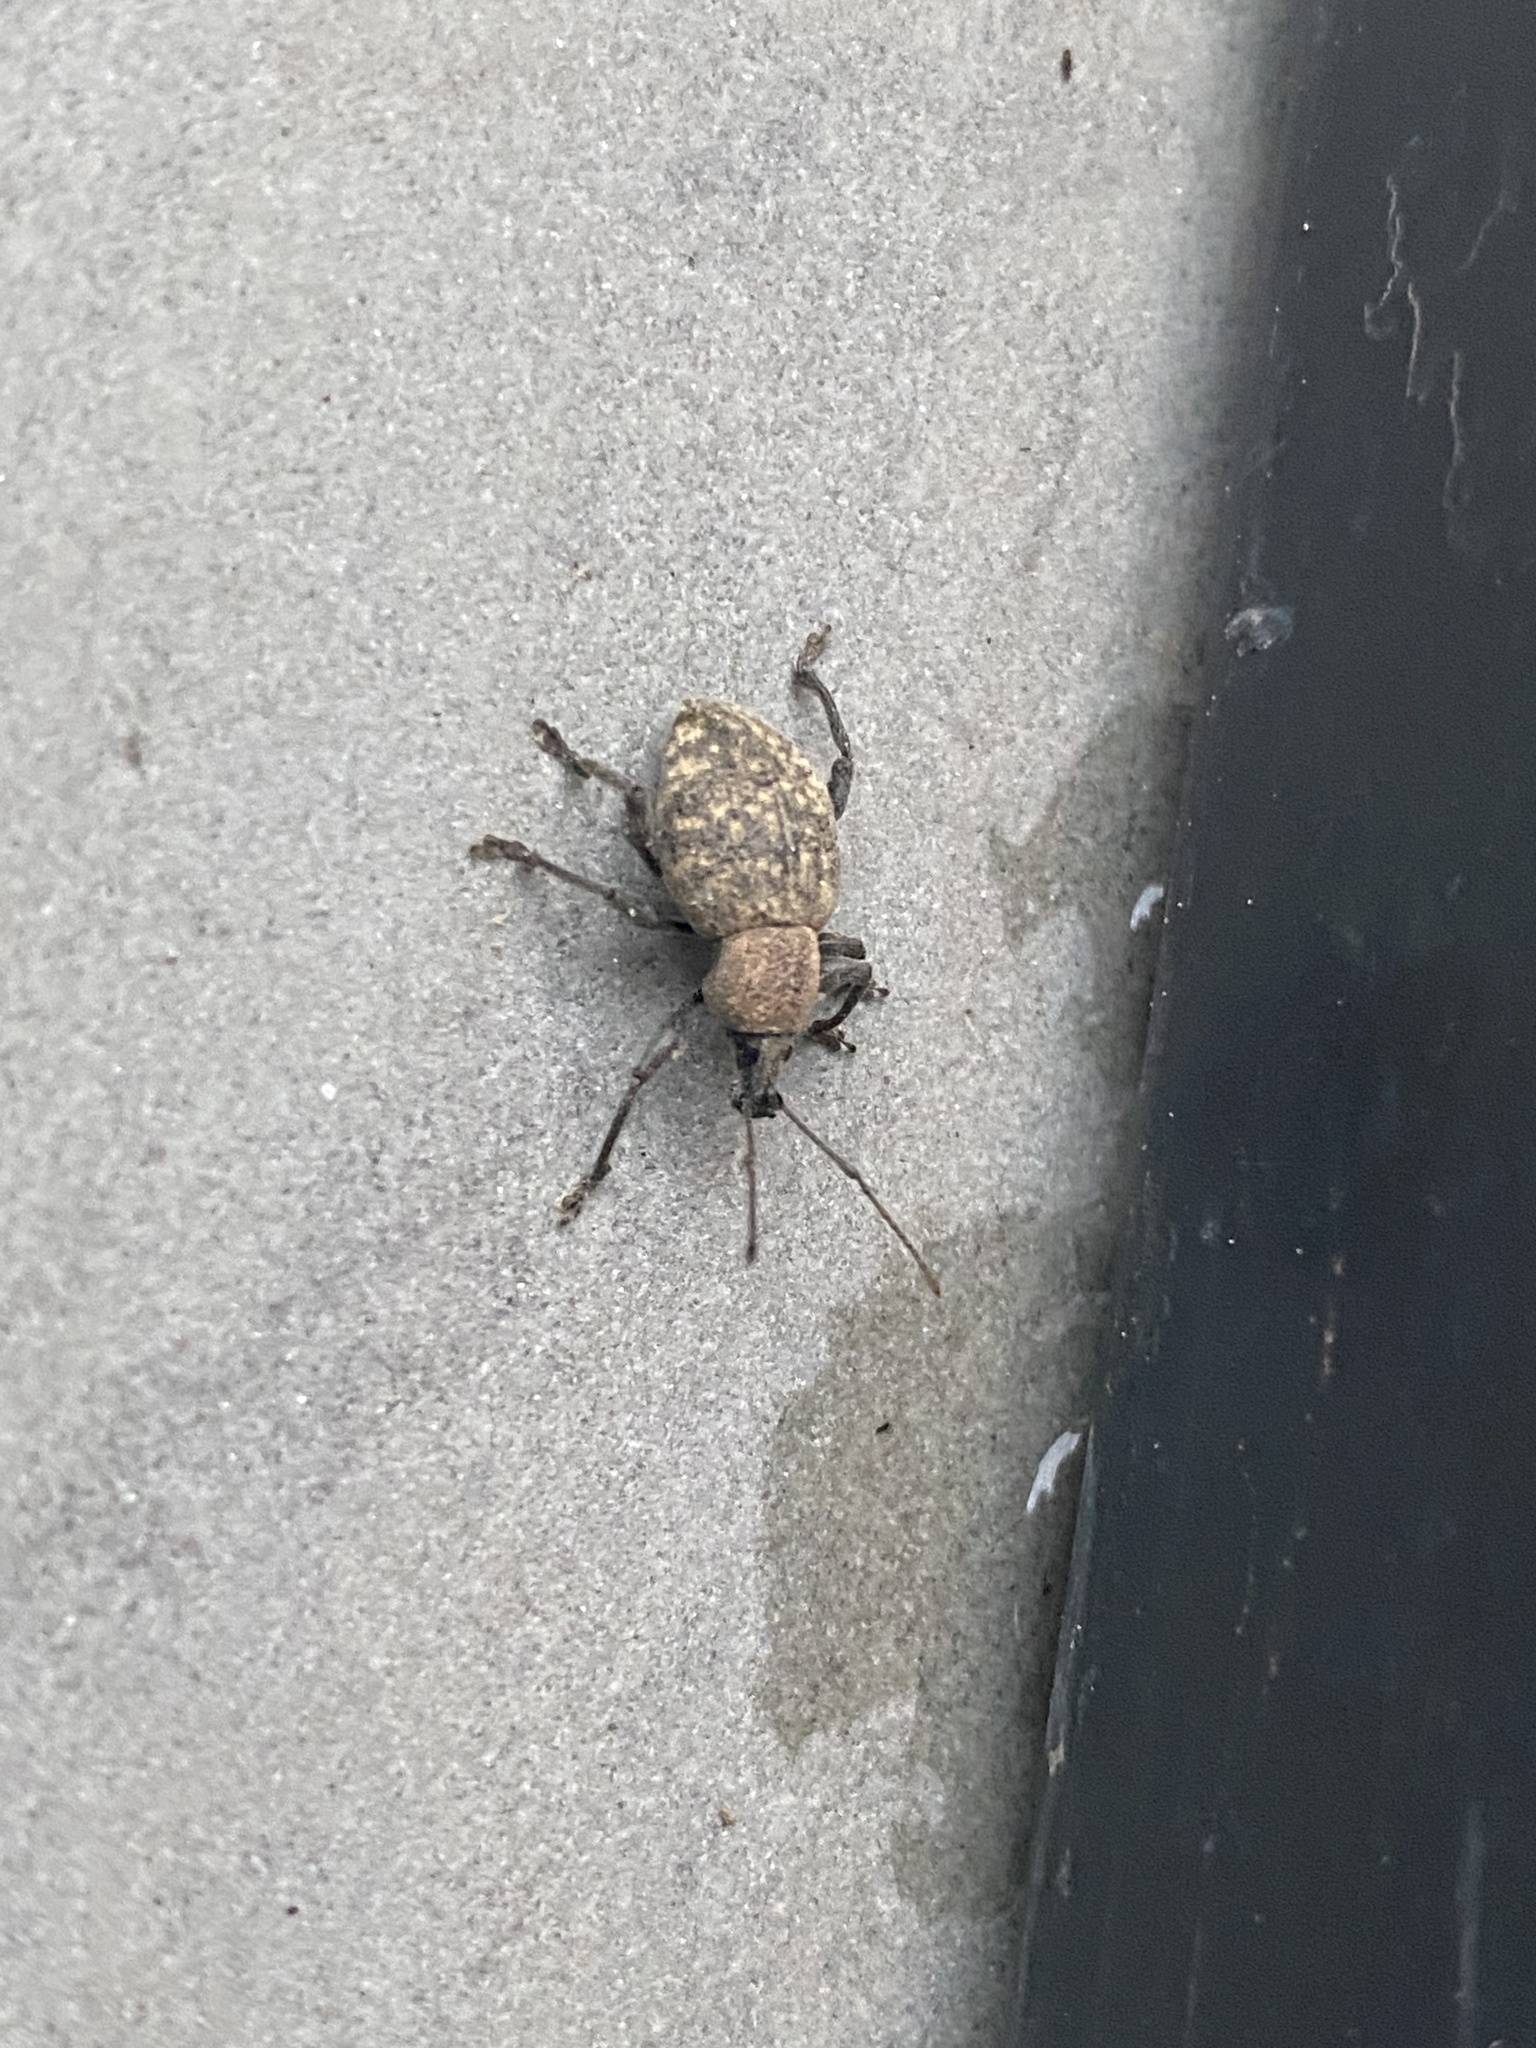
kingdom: Animalia
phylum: Arthropoda
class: Insecta
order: Coleoptera
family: Curculionidae
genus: Otiorhynchus
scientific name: Otiorhynchus armadillo
